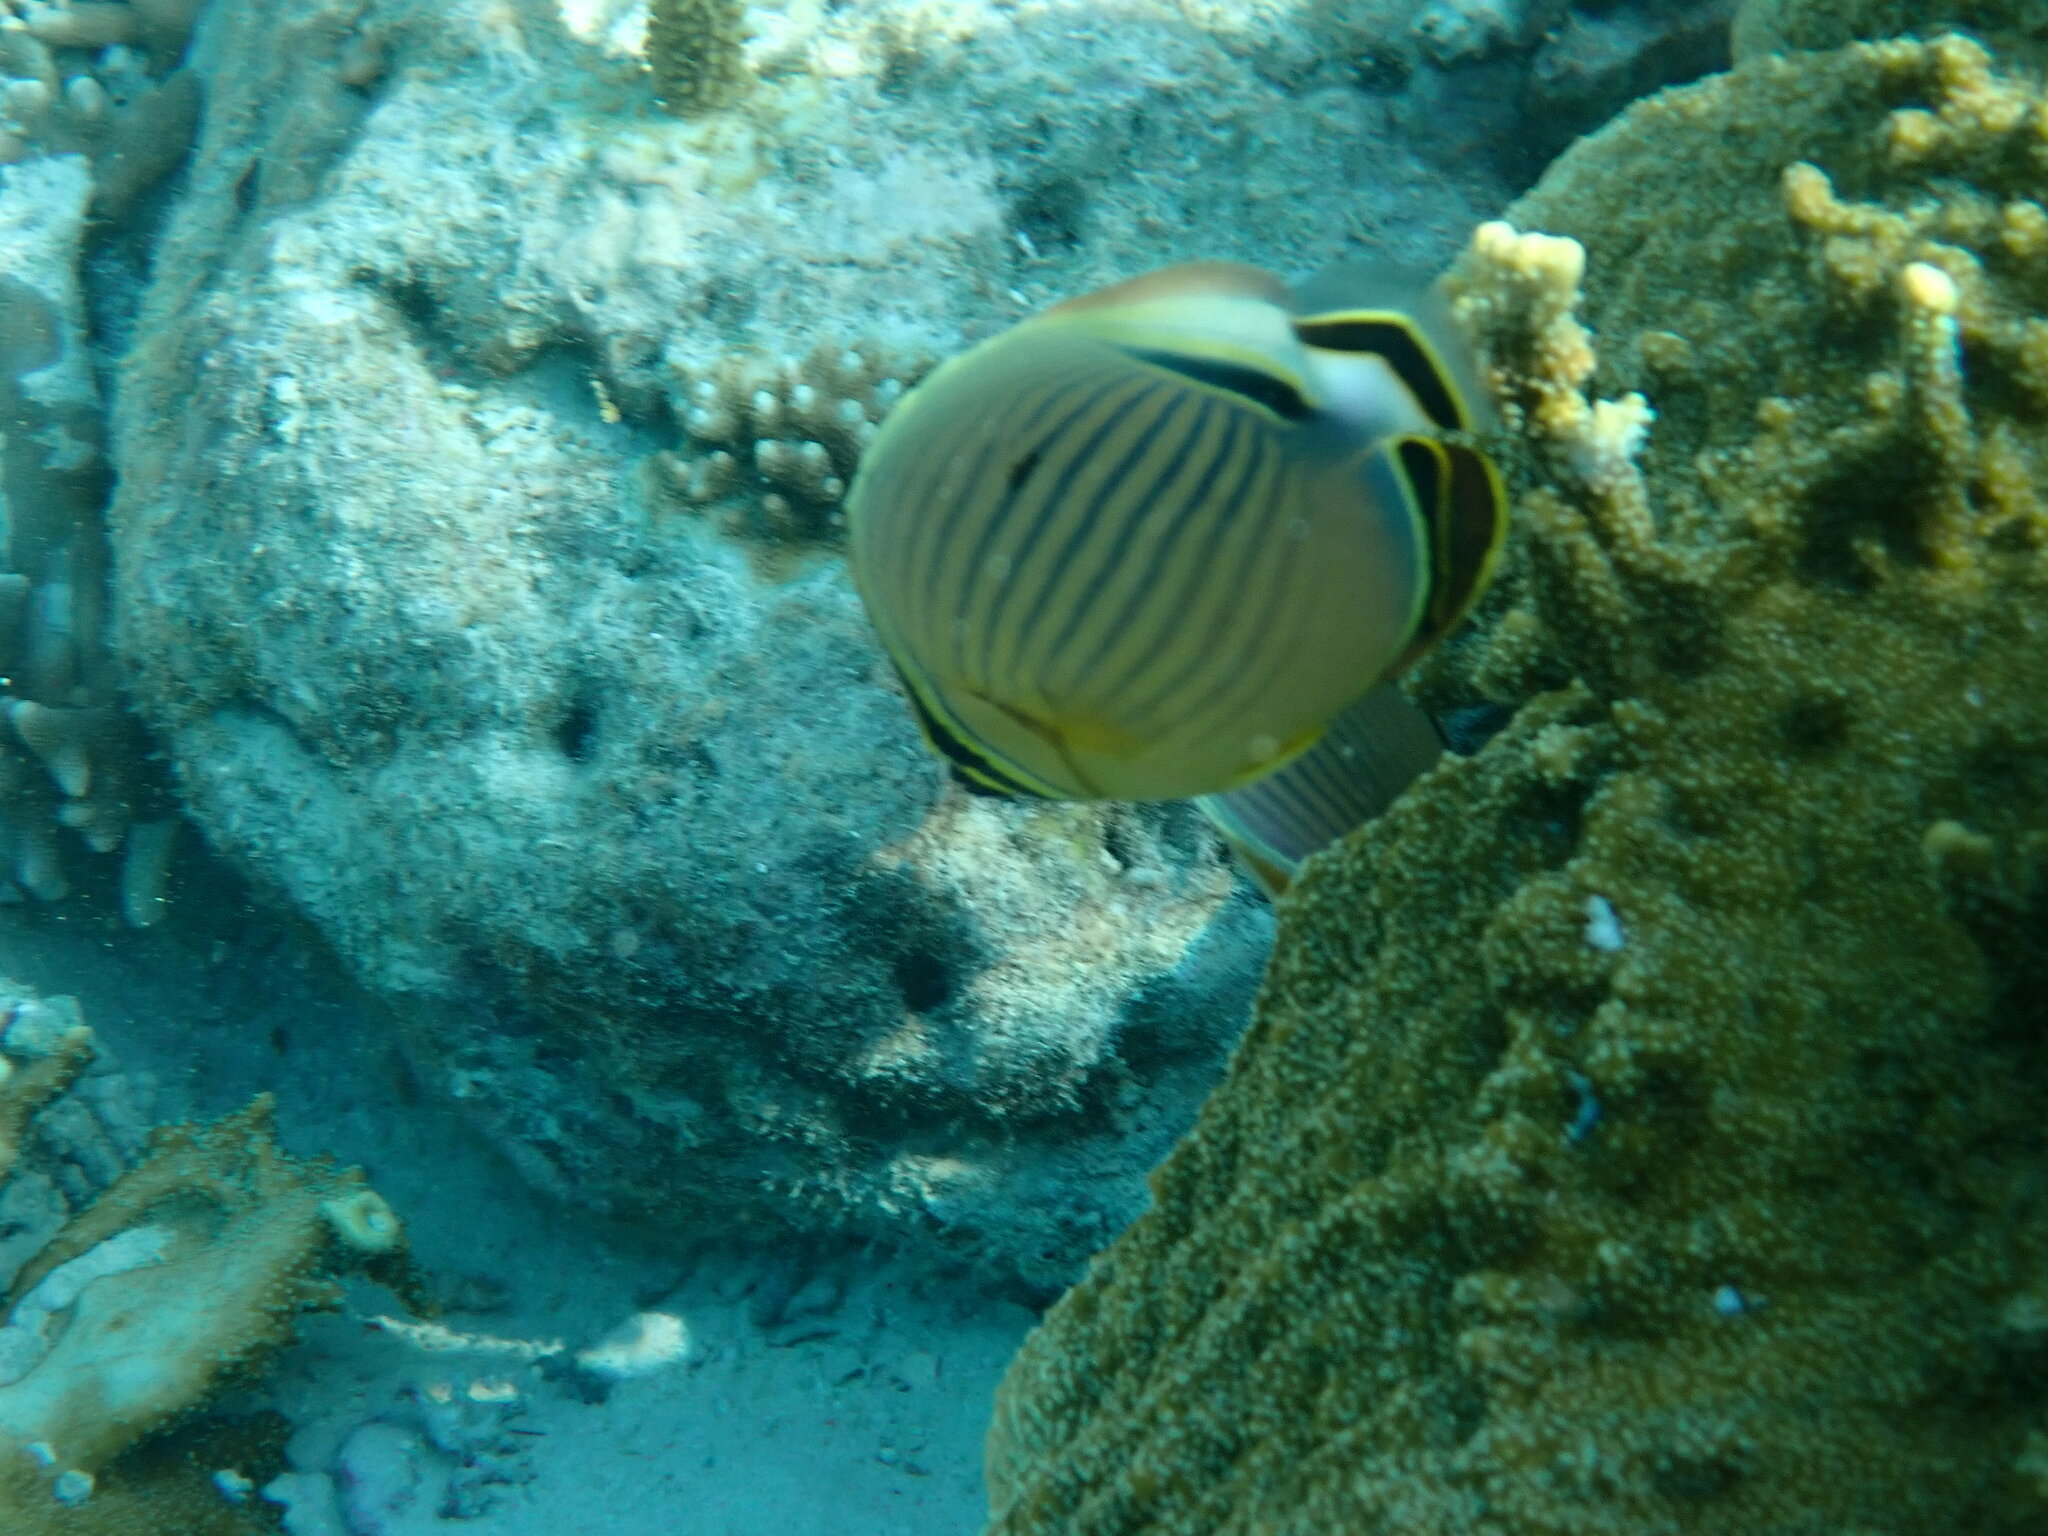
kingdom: Animalia
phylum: Chordata
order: Perciformes
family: Chaetodontidae
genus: Chaetodon
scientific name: Chaetodon lunulatus
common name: Redfin butterflyfish
